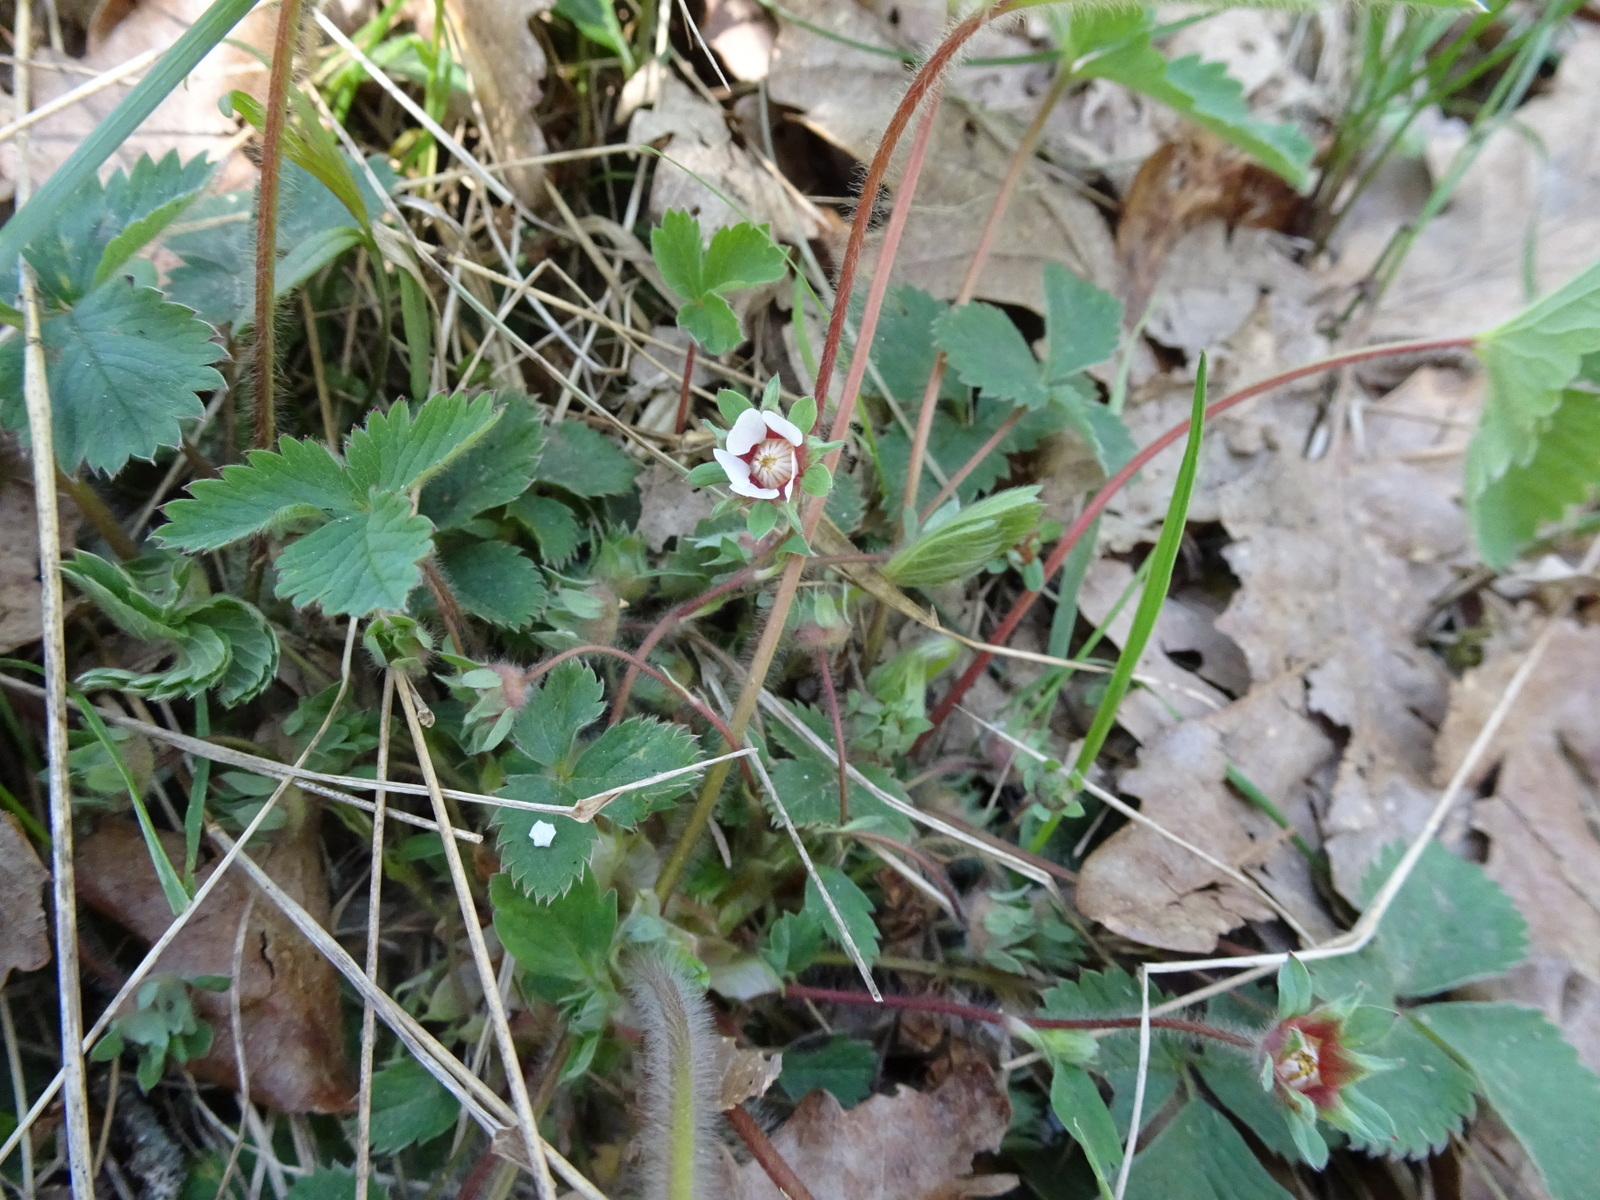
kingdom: Plantae
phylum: Tracheophyta
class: Magnoliopsida
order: Rosales
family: Rosaceae
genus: Potentilla
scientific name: Potentilla micrantha
